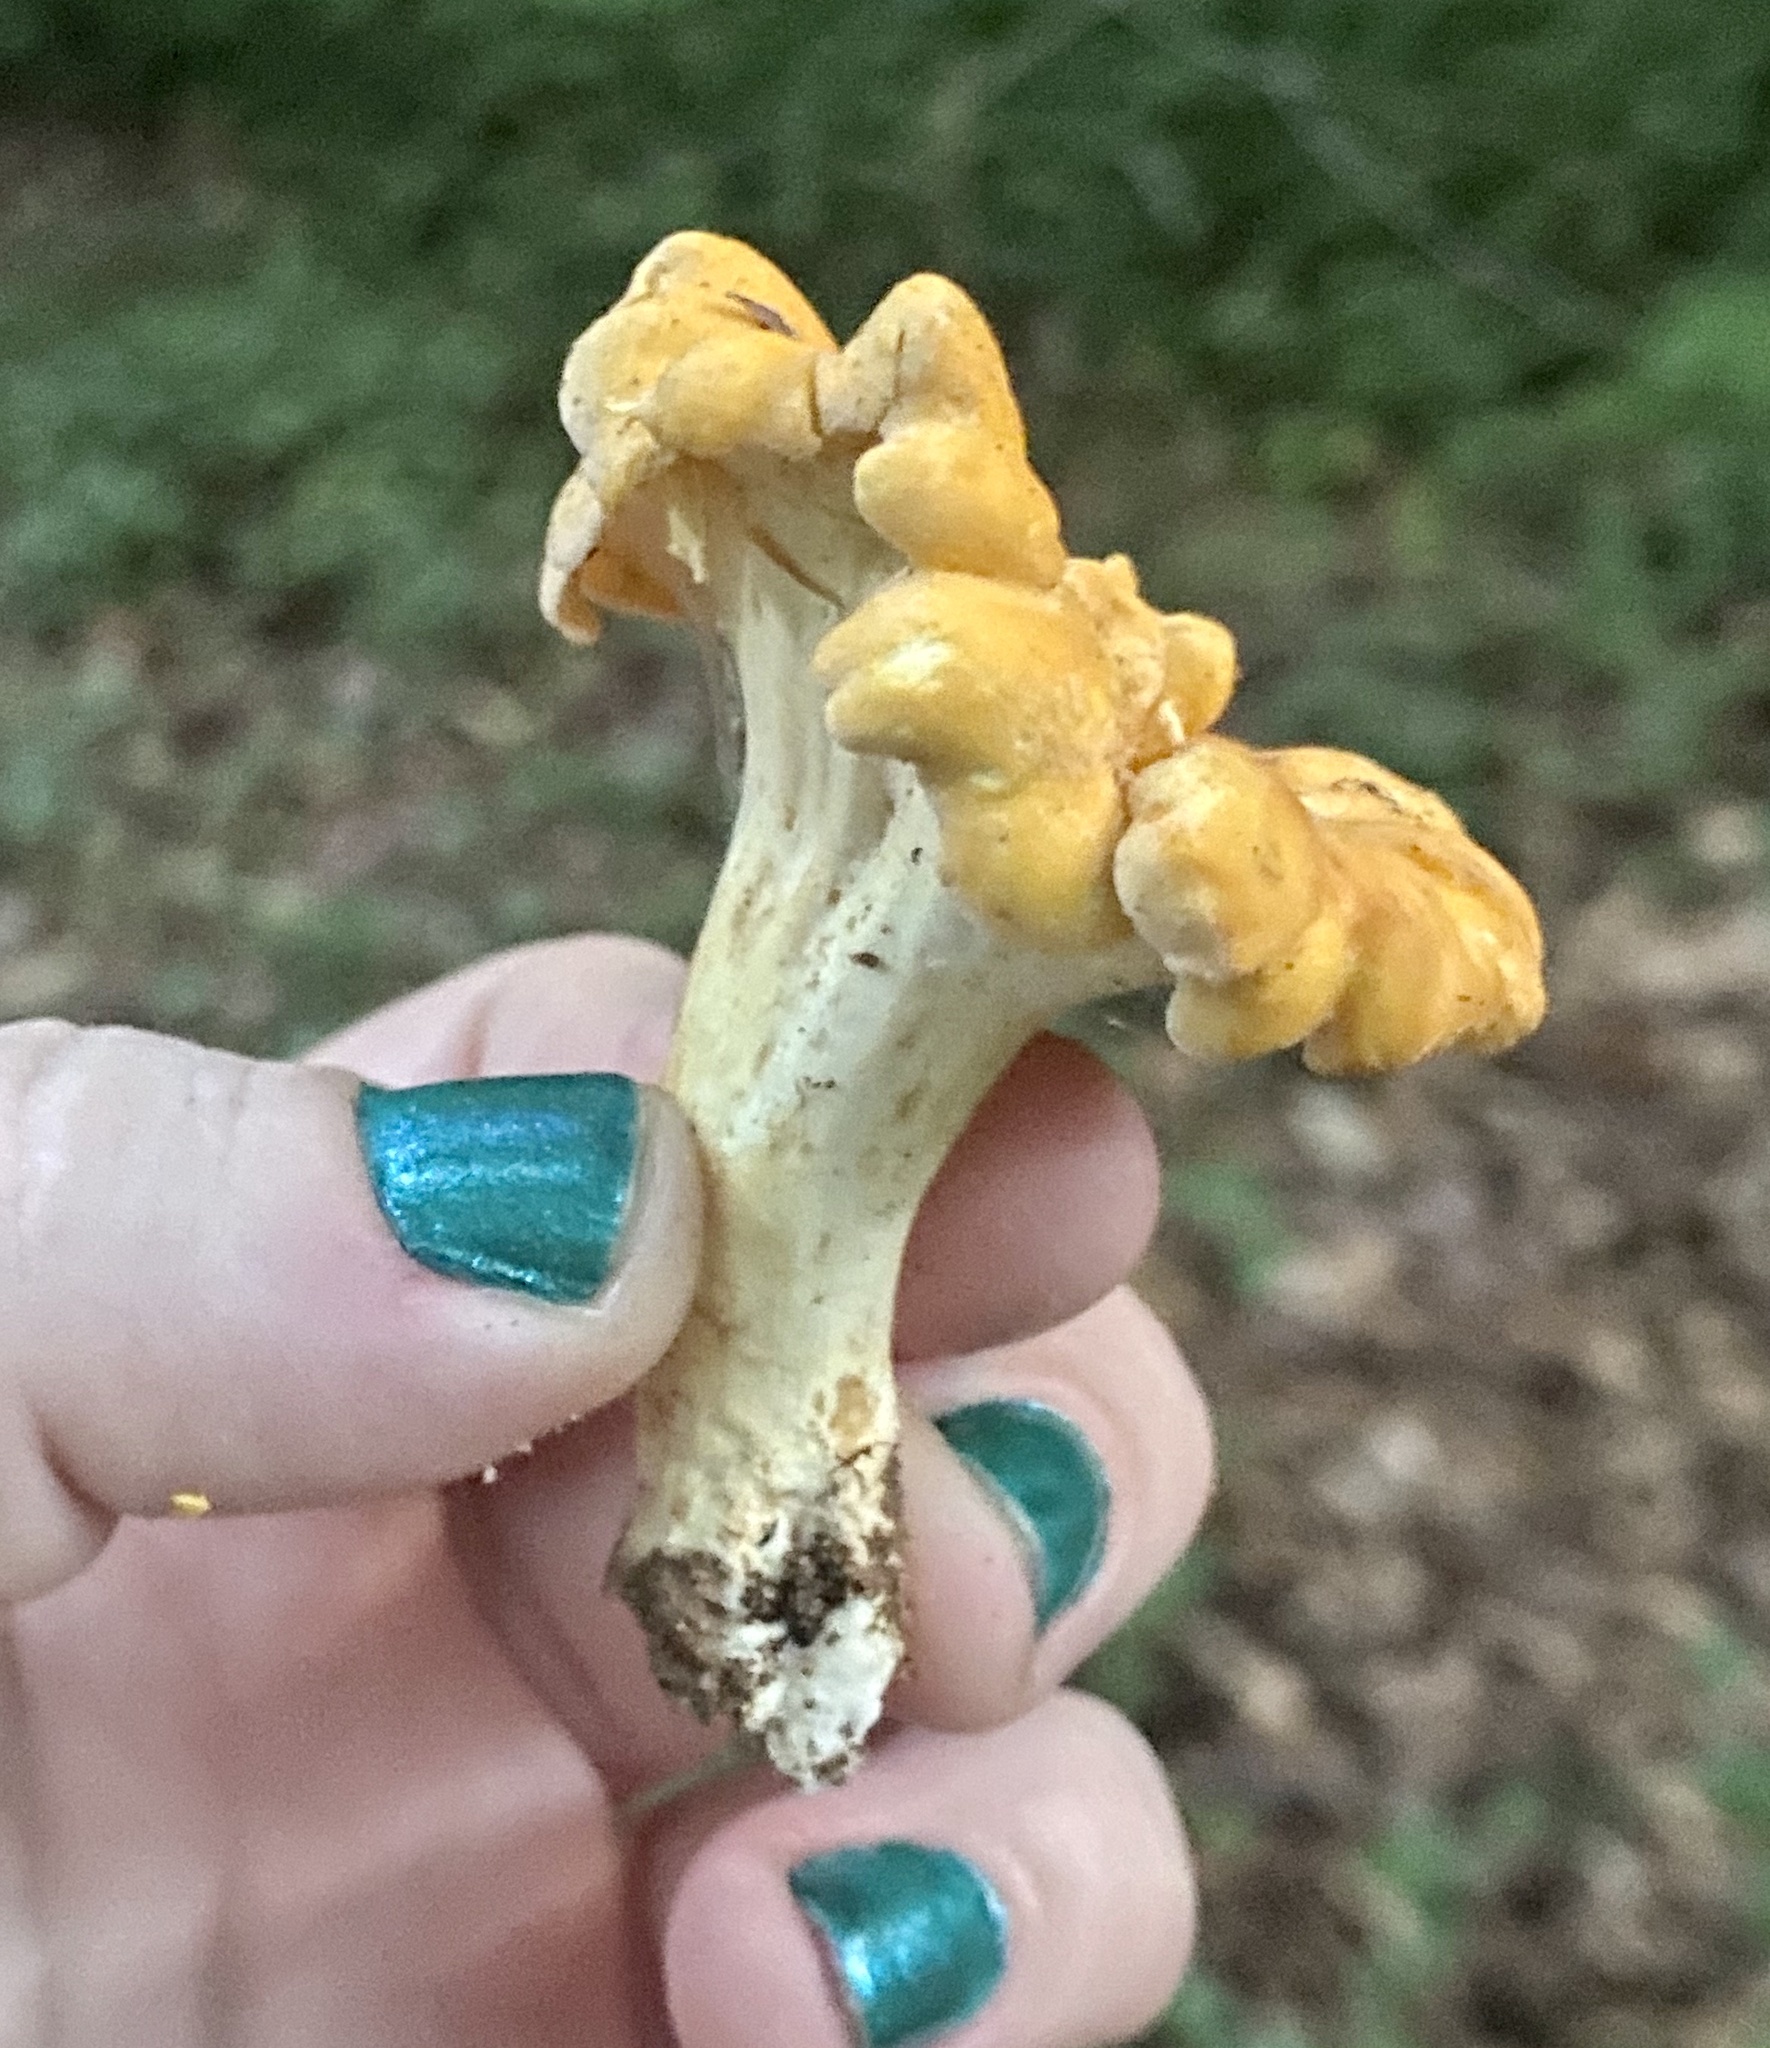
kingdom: Fungi
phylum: Basidiomycota
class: Agaricomycetes
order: Cantharellales
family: Hydnaceae
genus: Cantharellus
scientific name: Cantharellus lateritius
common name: Smooth chanterelle
